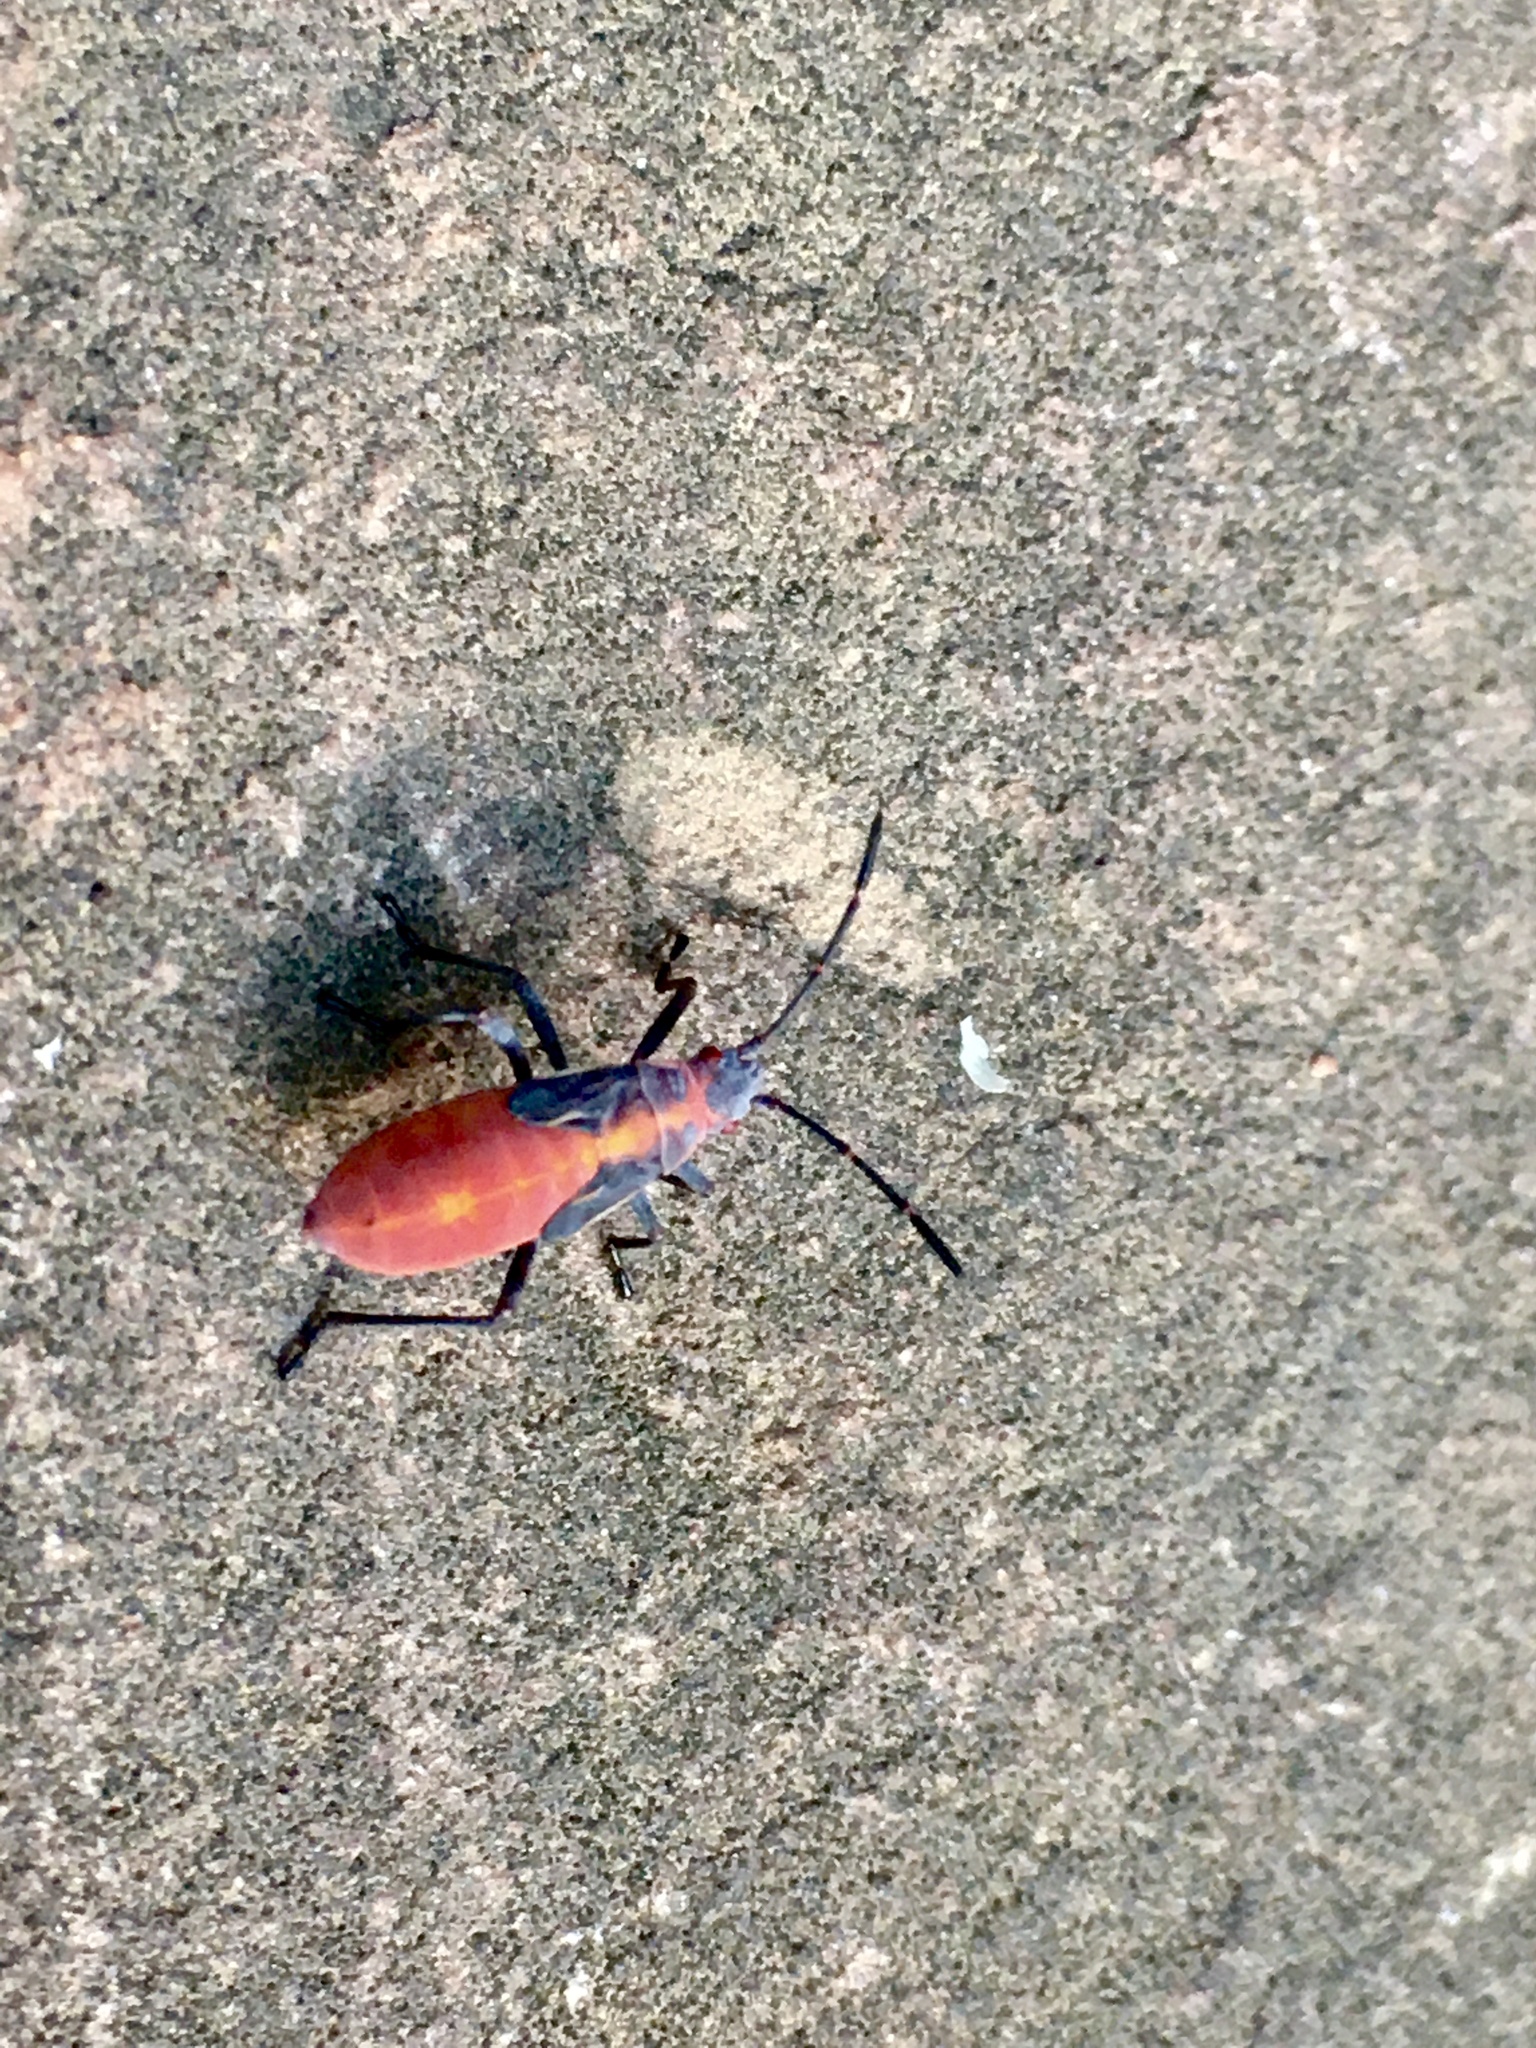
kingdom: Animalia
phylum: Arthropoda
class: Insecta
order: Hemiptera
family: Rhopalidae
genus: Boisea
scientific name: Boisea trivittata
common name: Boxelder bug
